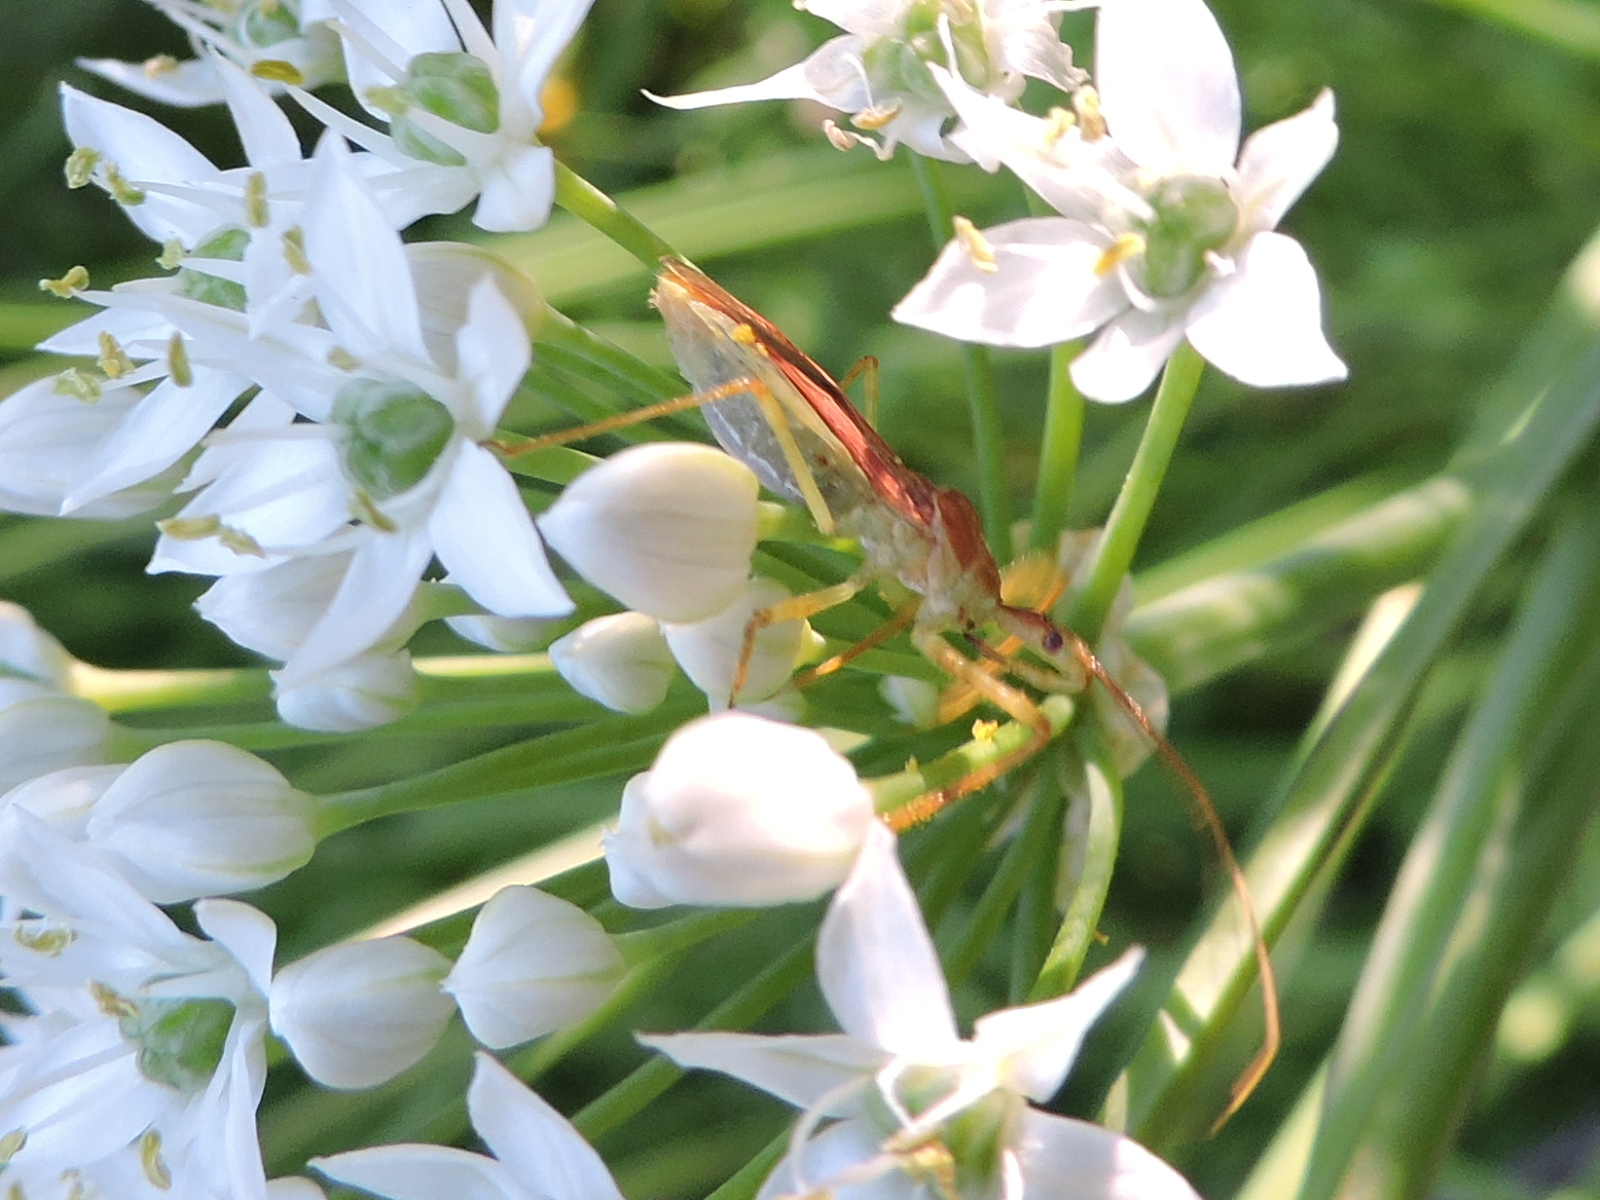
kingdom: Animalia
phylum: Arthropoda
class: Insecta
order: Hemiptera
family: Reduviidae
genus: Zelus
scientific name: Zelus renardii
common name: Assassin bug
